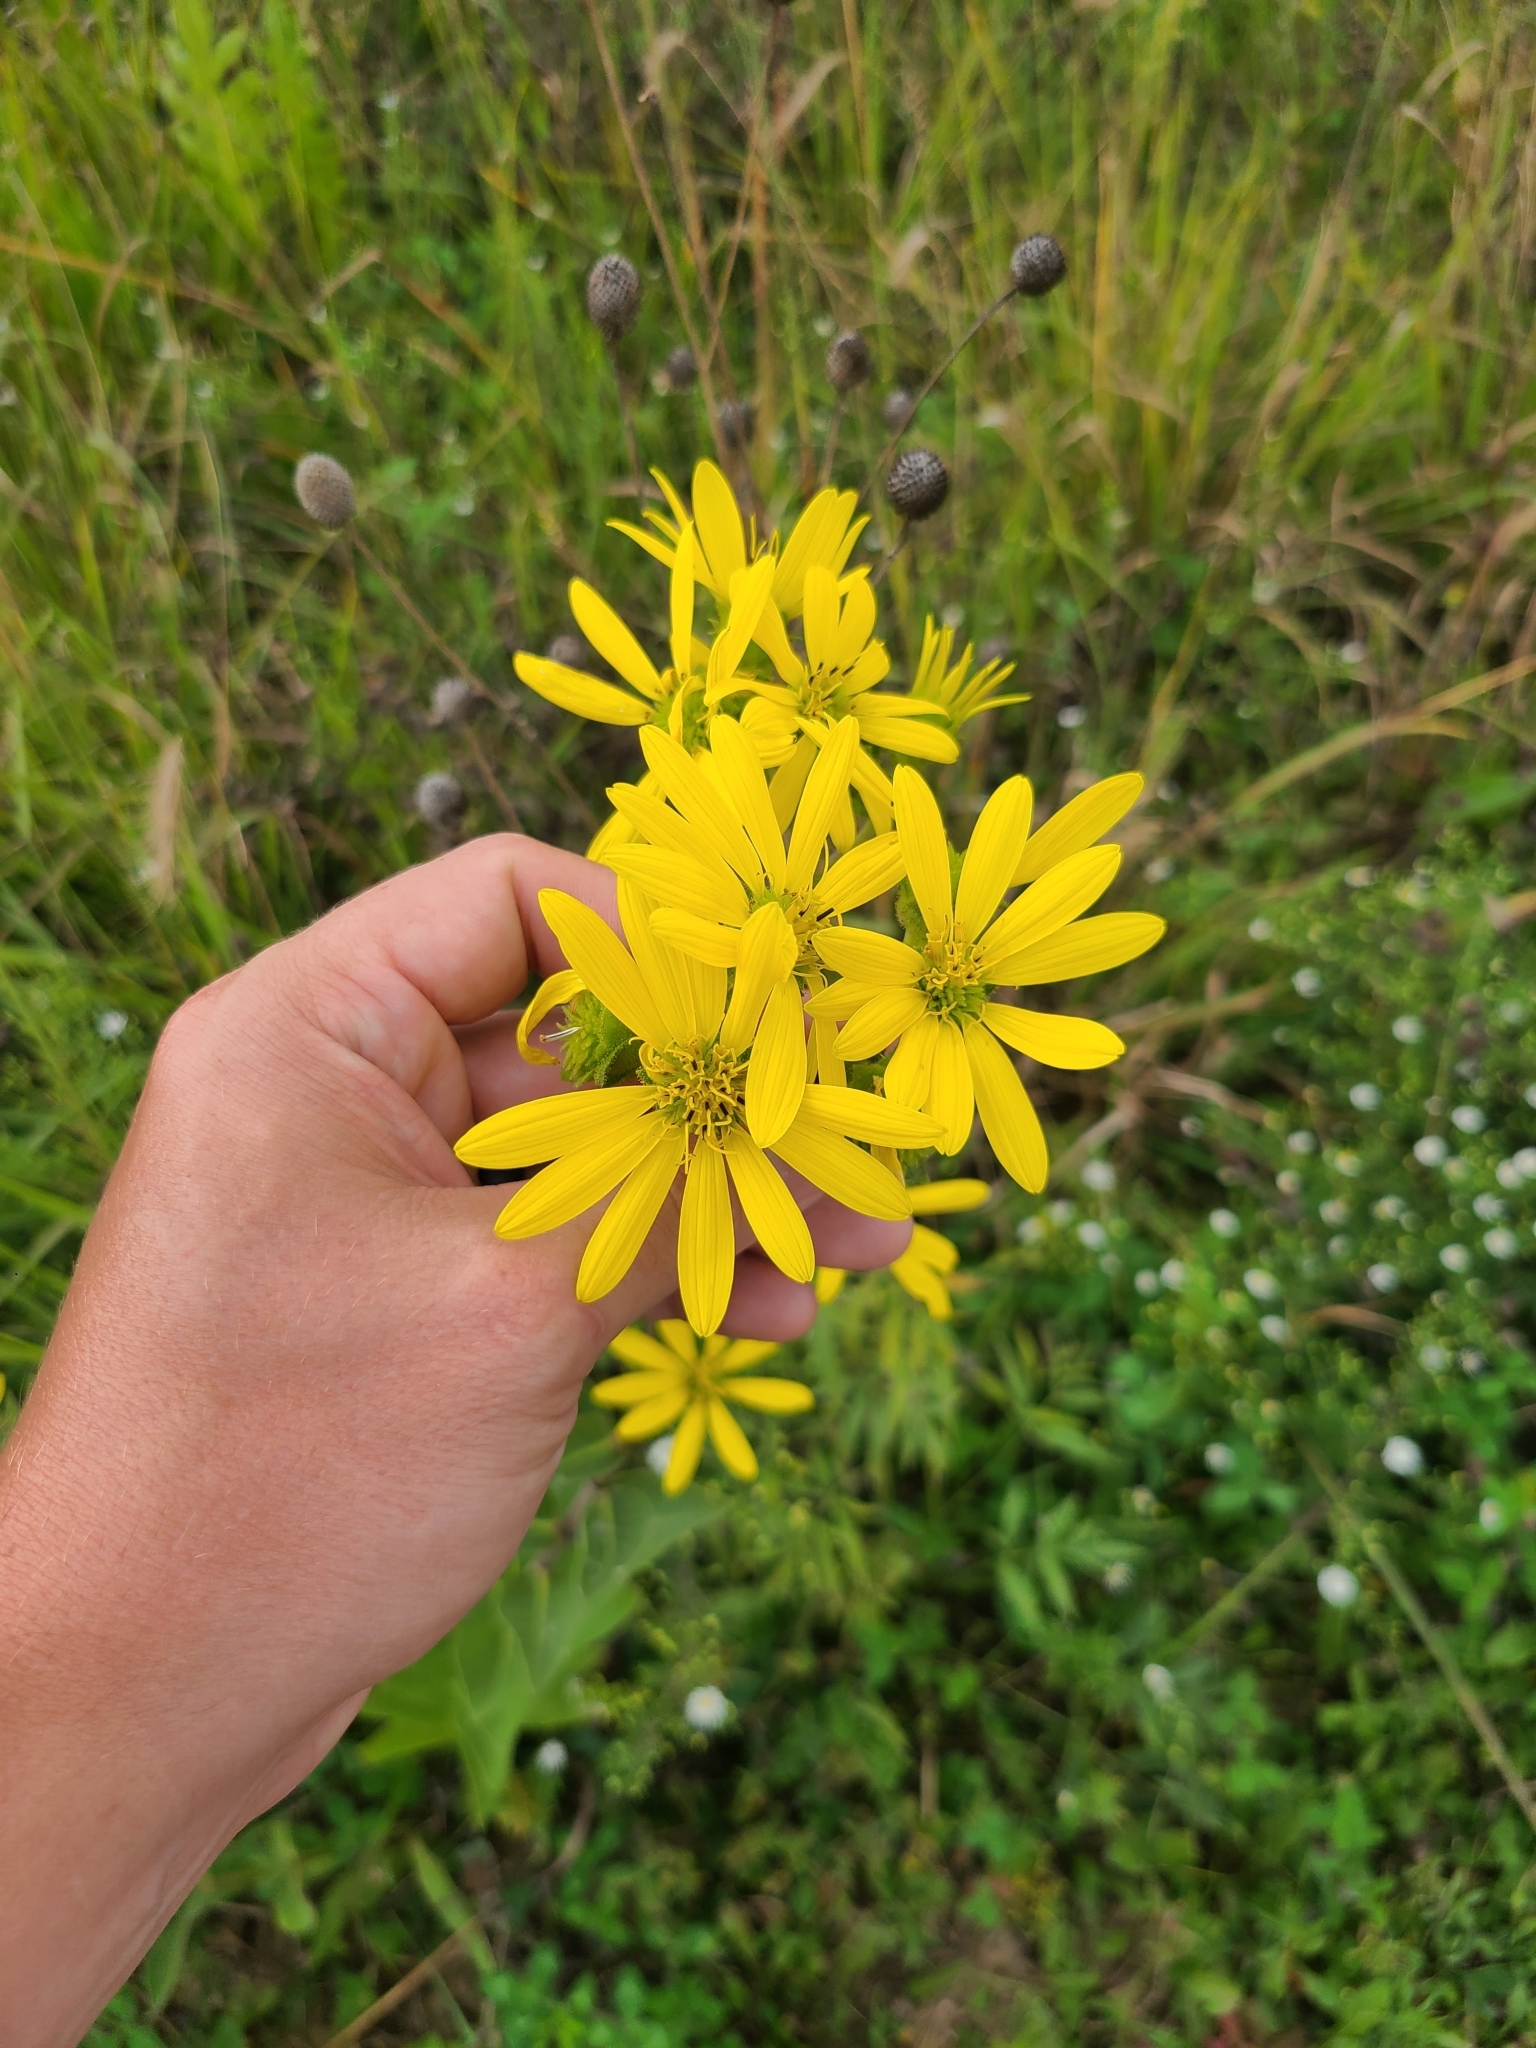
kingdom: Plantae
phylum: Tracheophyta
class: Magnoliopsida
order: Asterales
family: Asteraceae
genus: Silphium
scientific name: Silphium integrifolium
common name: Whole-leaf rosinweed
